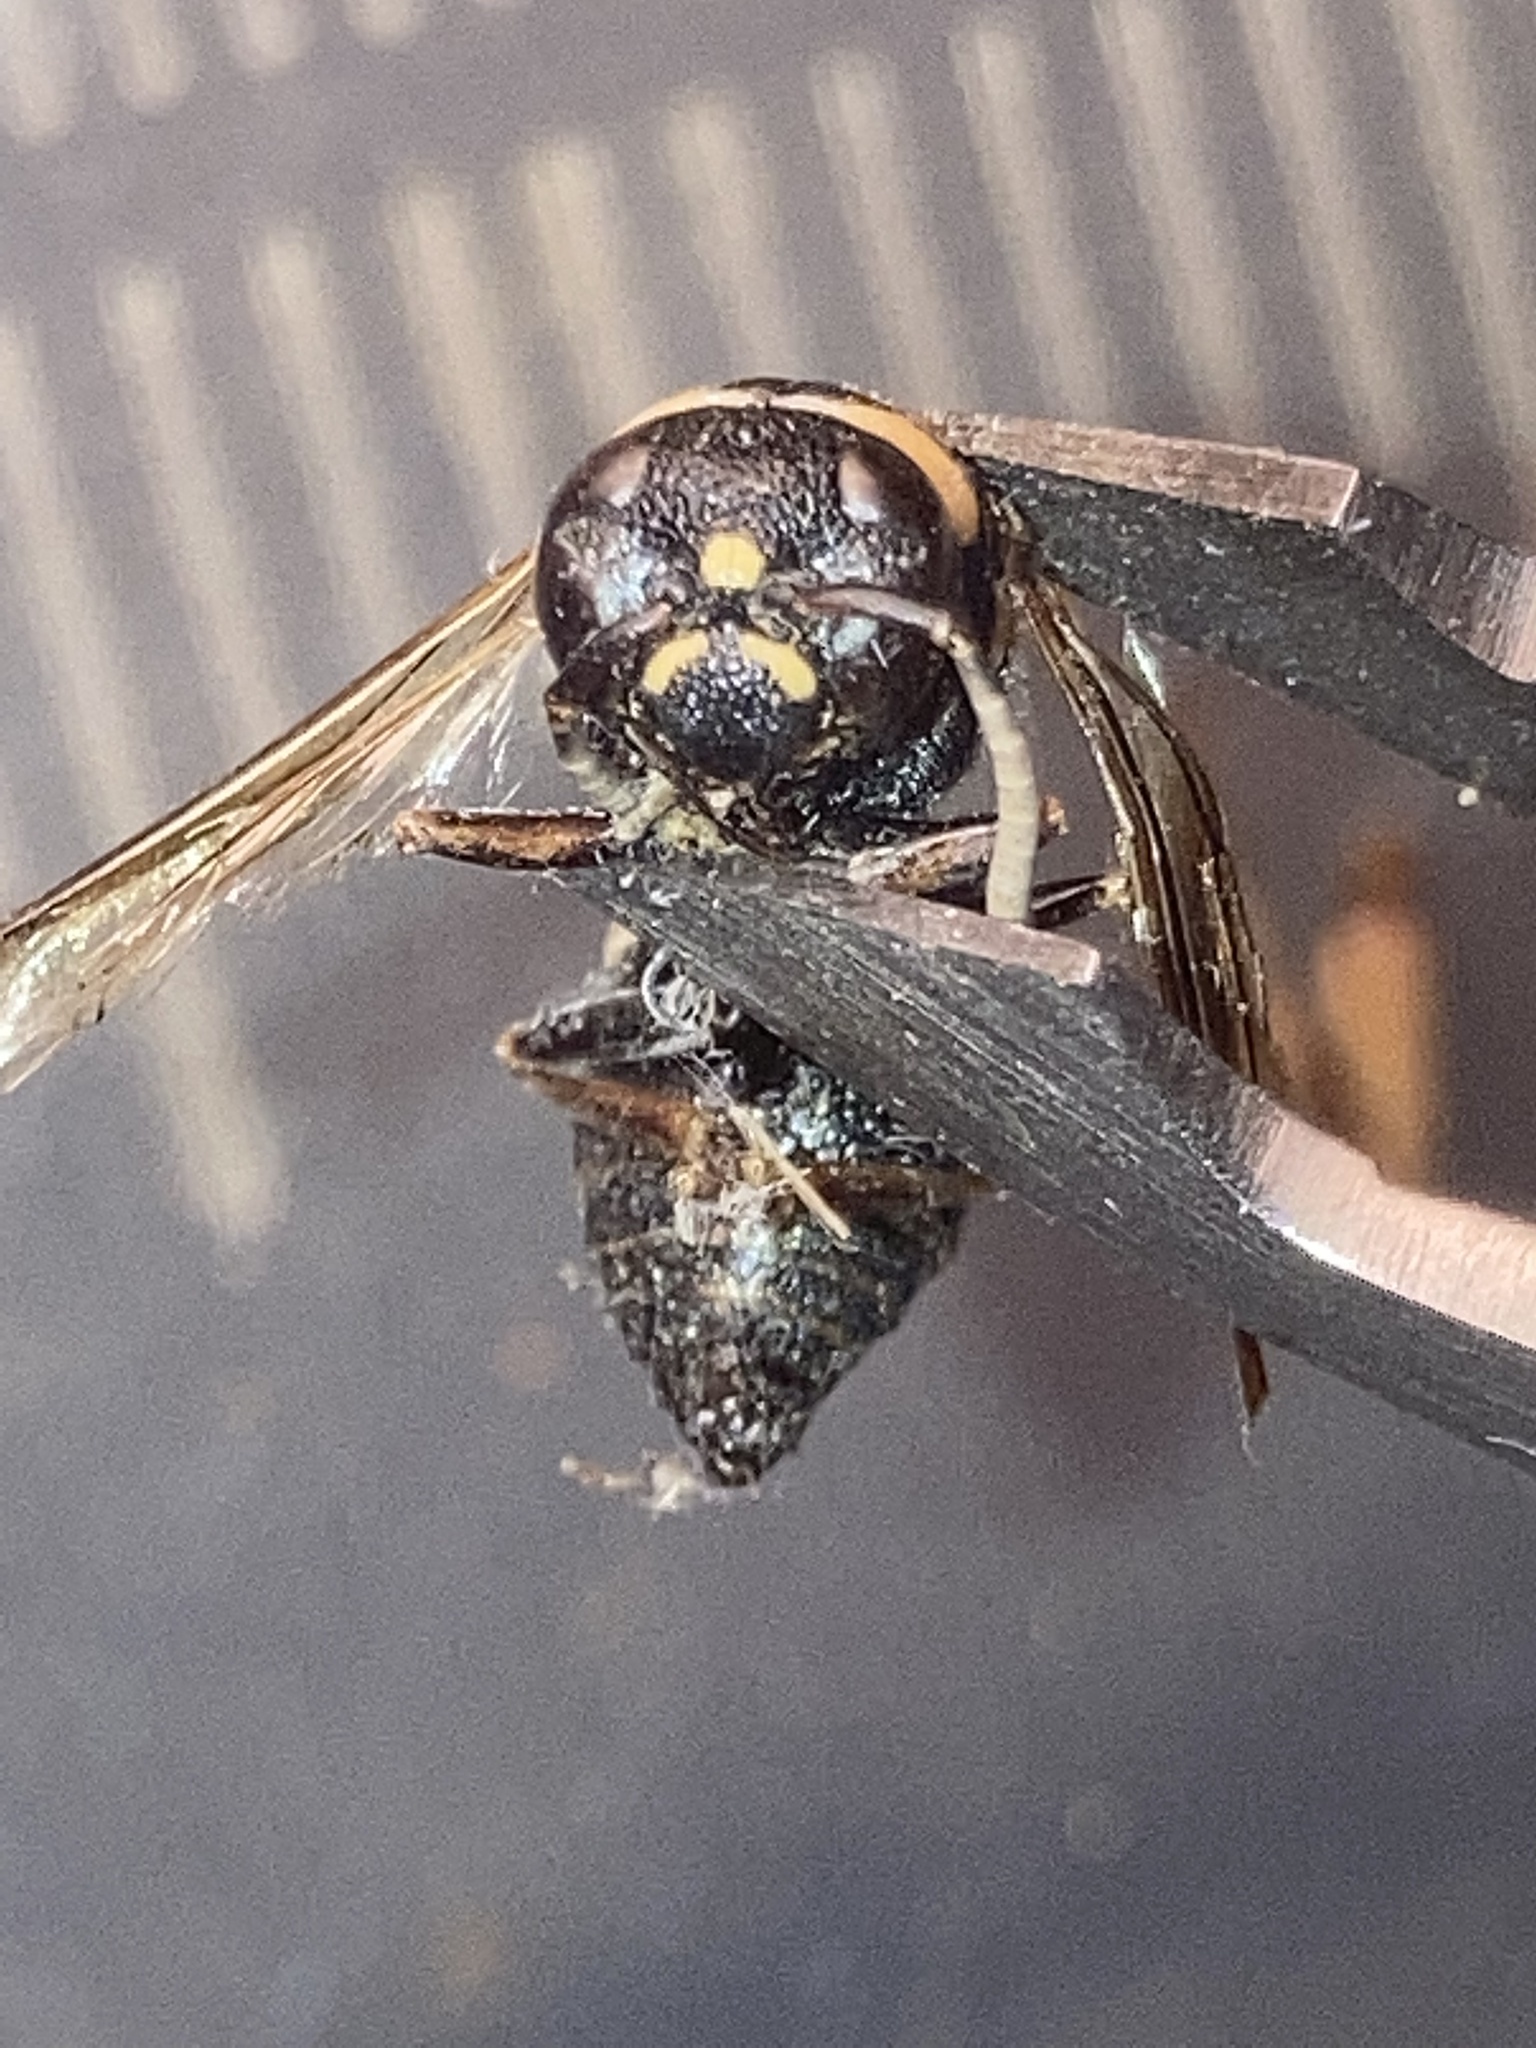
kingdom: Animalia
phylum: Arthropoda
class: Insecta
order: Hymenoptera
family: Eumenidae
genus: Euodynerus
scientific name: Euodynerus megaera
